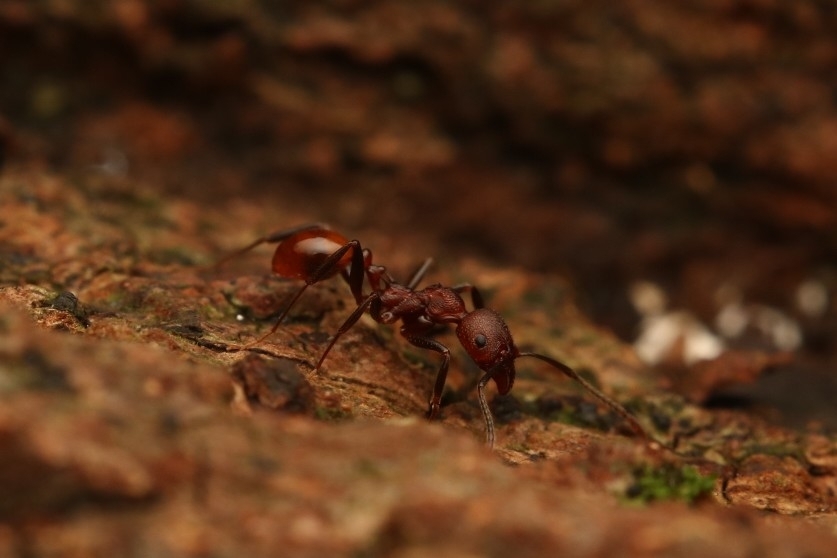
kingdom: Animalia
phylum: Arthropoda
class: Insecta
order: Hymenoptera
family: Formicidae
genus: Aphaenogaster
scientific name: Aphaenogaster tennesseensis
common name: Tennessee thread-waisted ant
